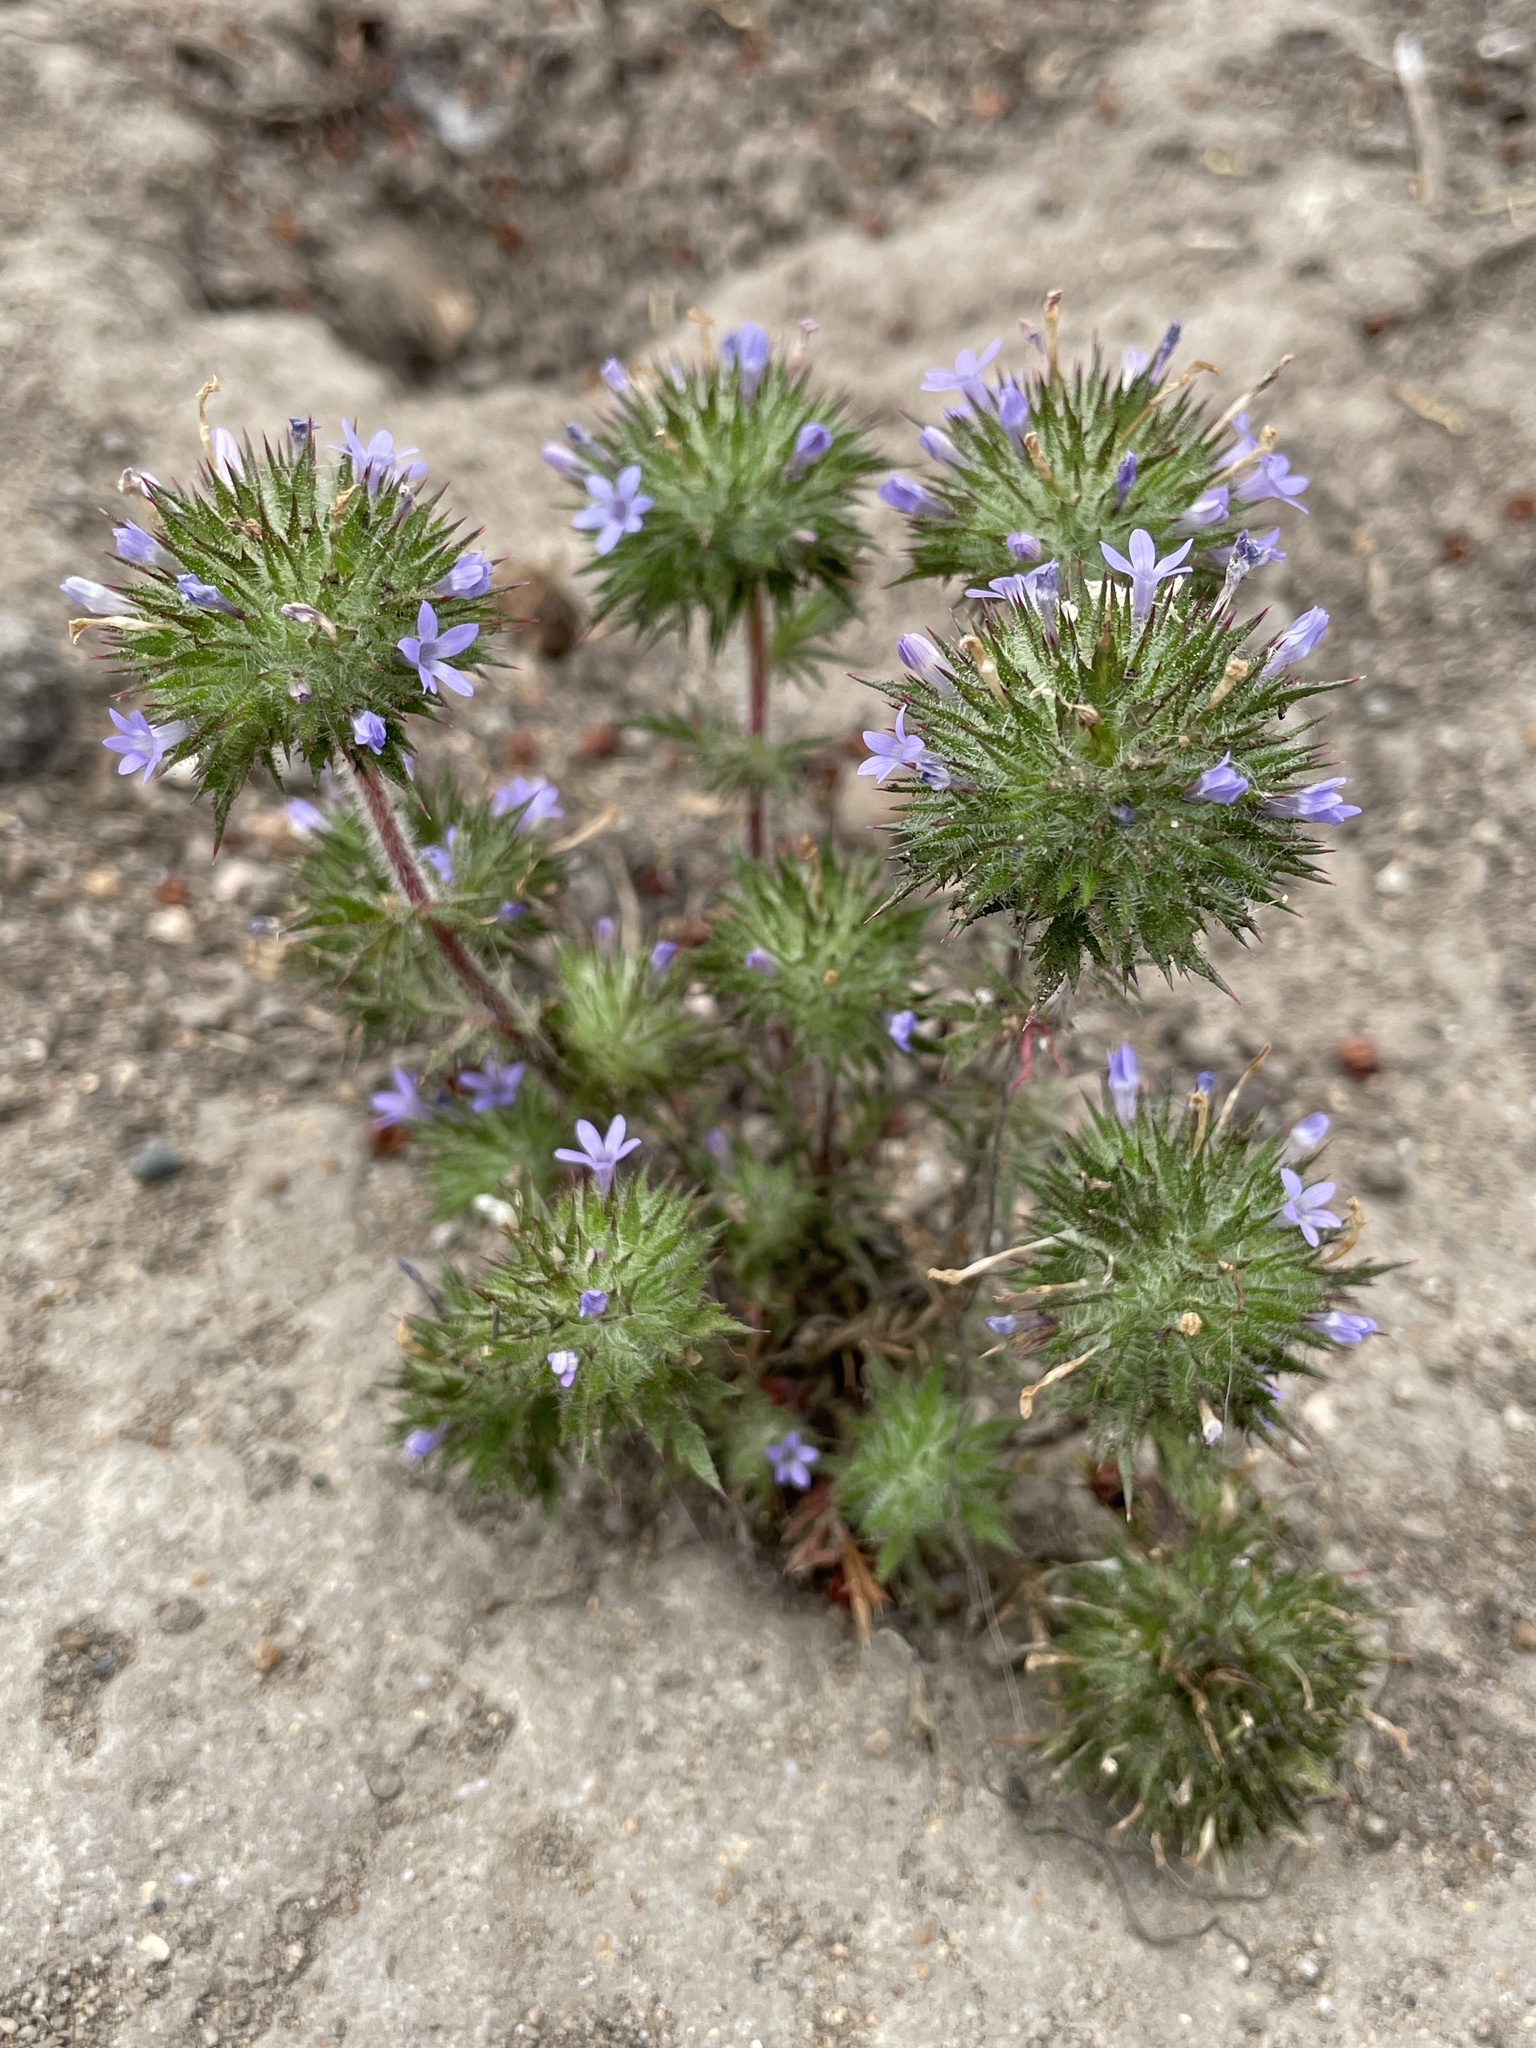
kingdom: Plantae
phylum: Tracheophyta
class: Magnoliopsida
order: Ericales
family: Polemoniaceae
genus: Navarretia
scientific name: Navarretia squarrosa
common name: Skunkweed
